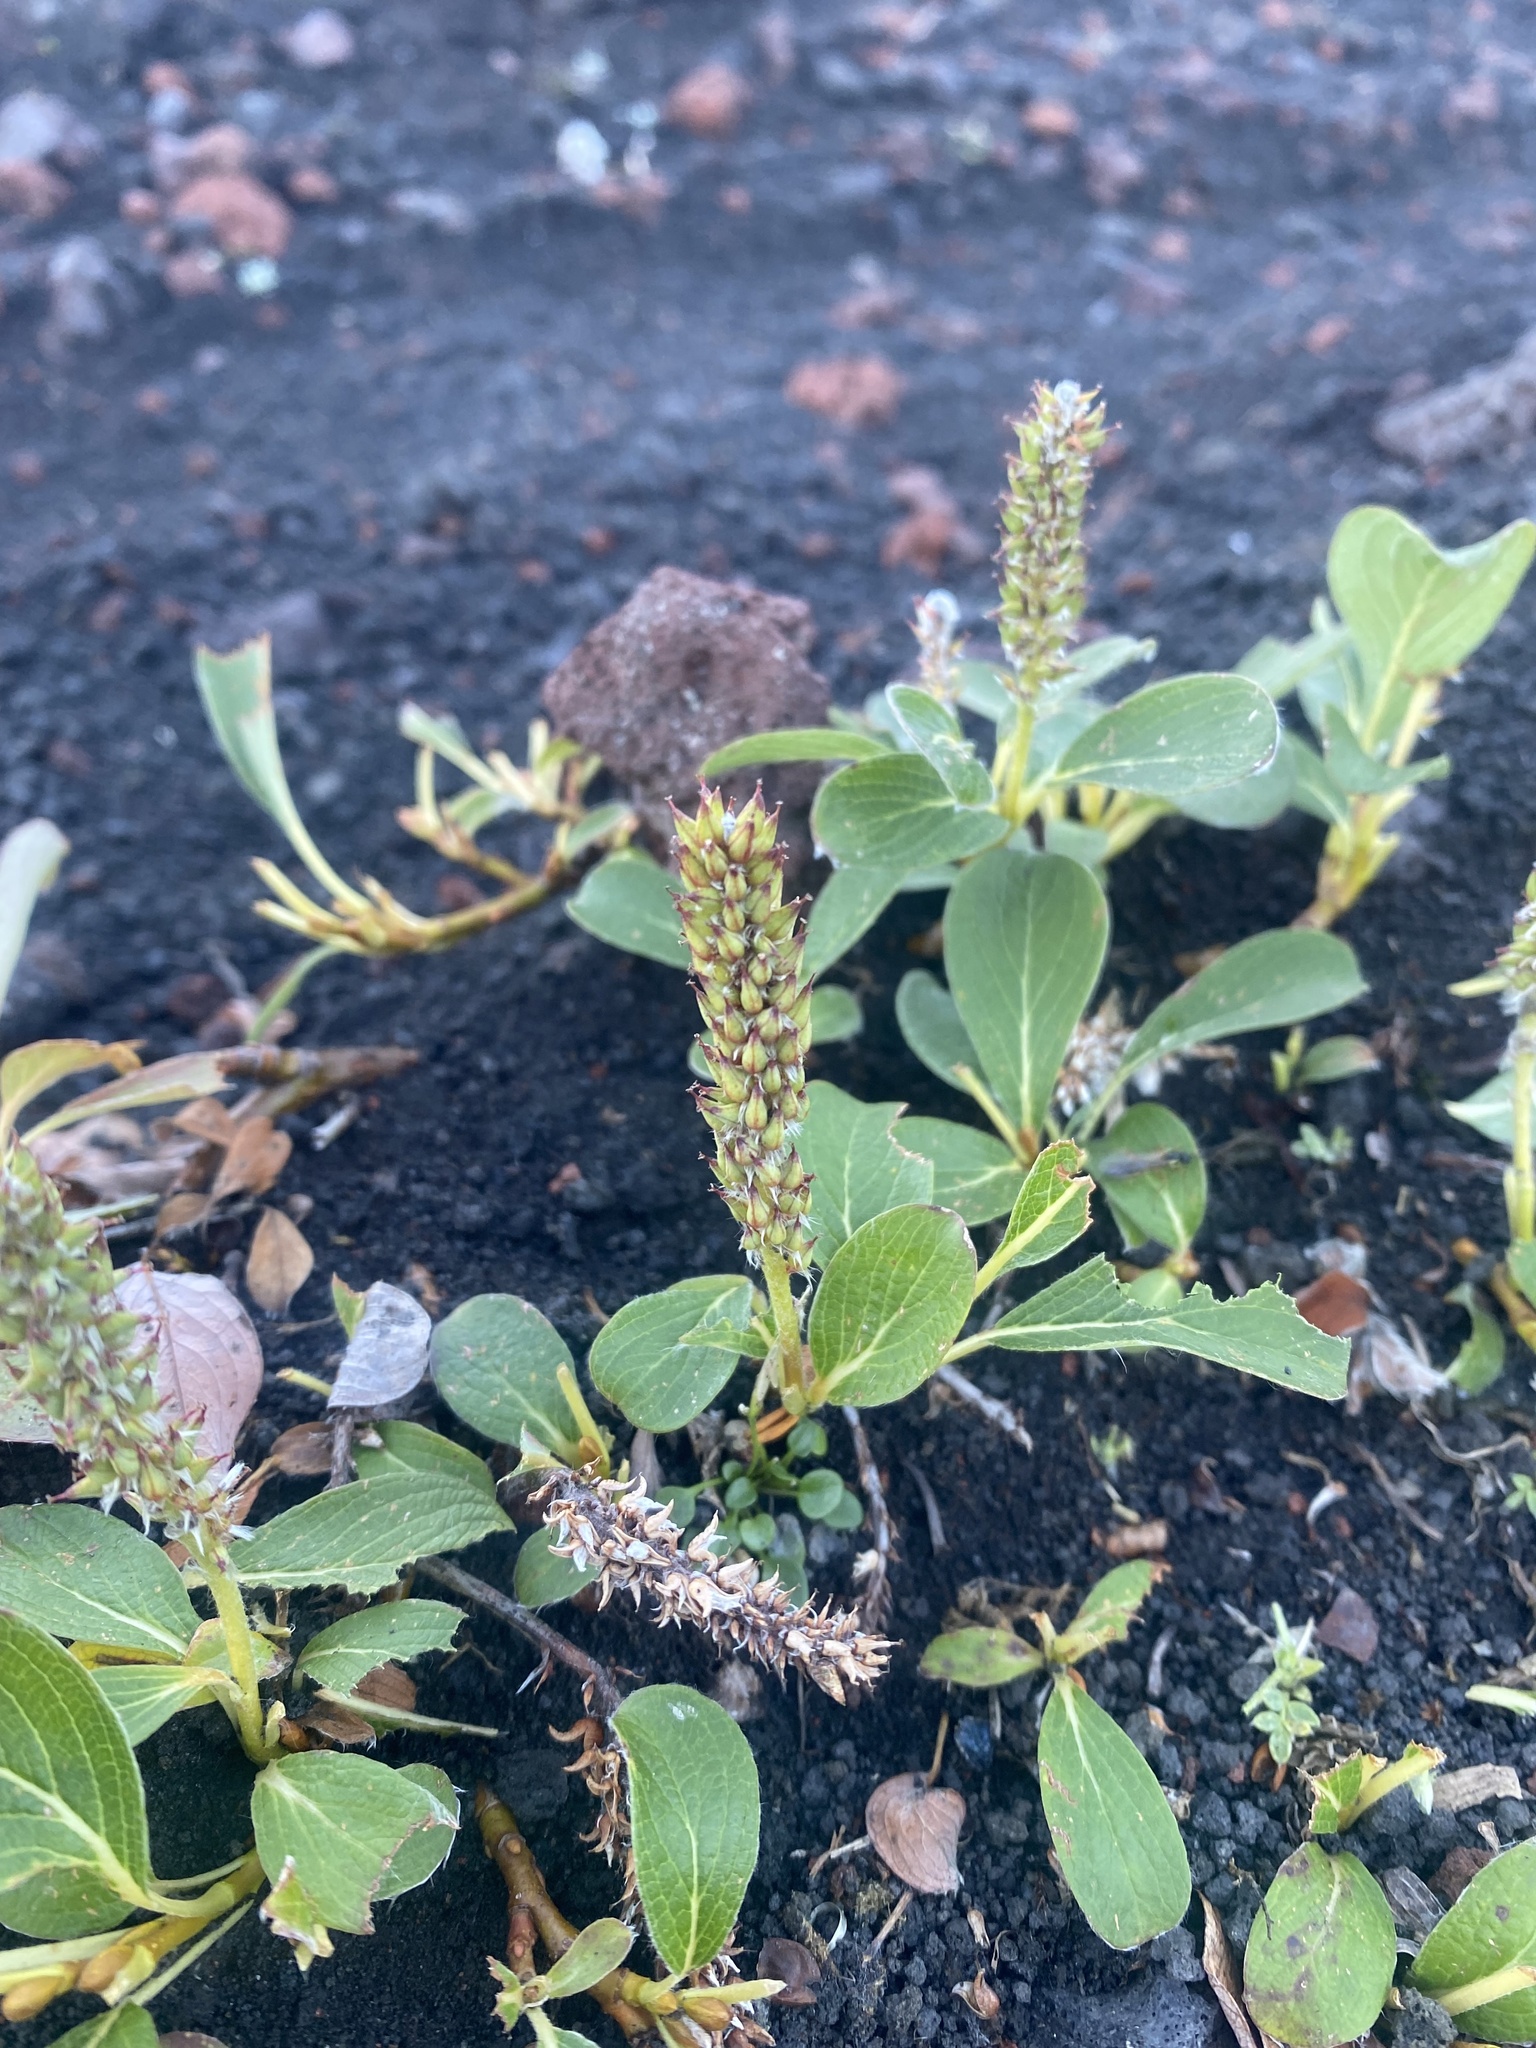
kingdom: Plantae
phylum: Tracheophyta
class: Magnoliopsida
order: Malpighiales
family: Salicaceae
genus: Salix
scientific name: Salix sphenophylla
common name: Wedge-leaved willow
